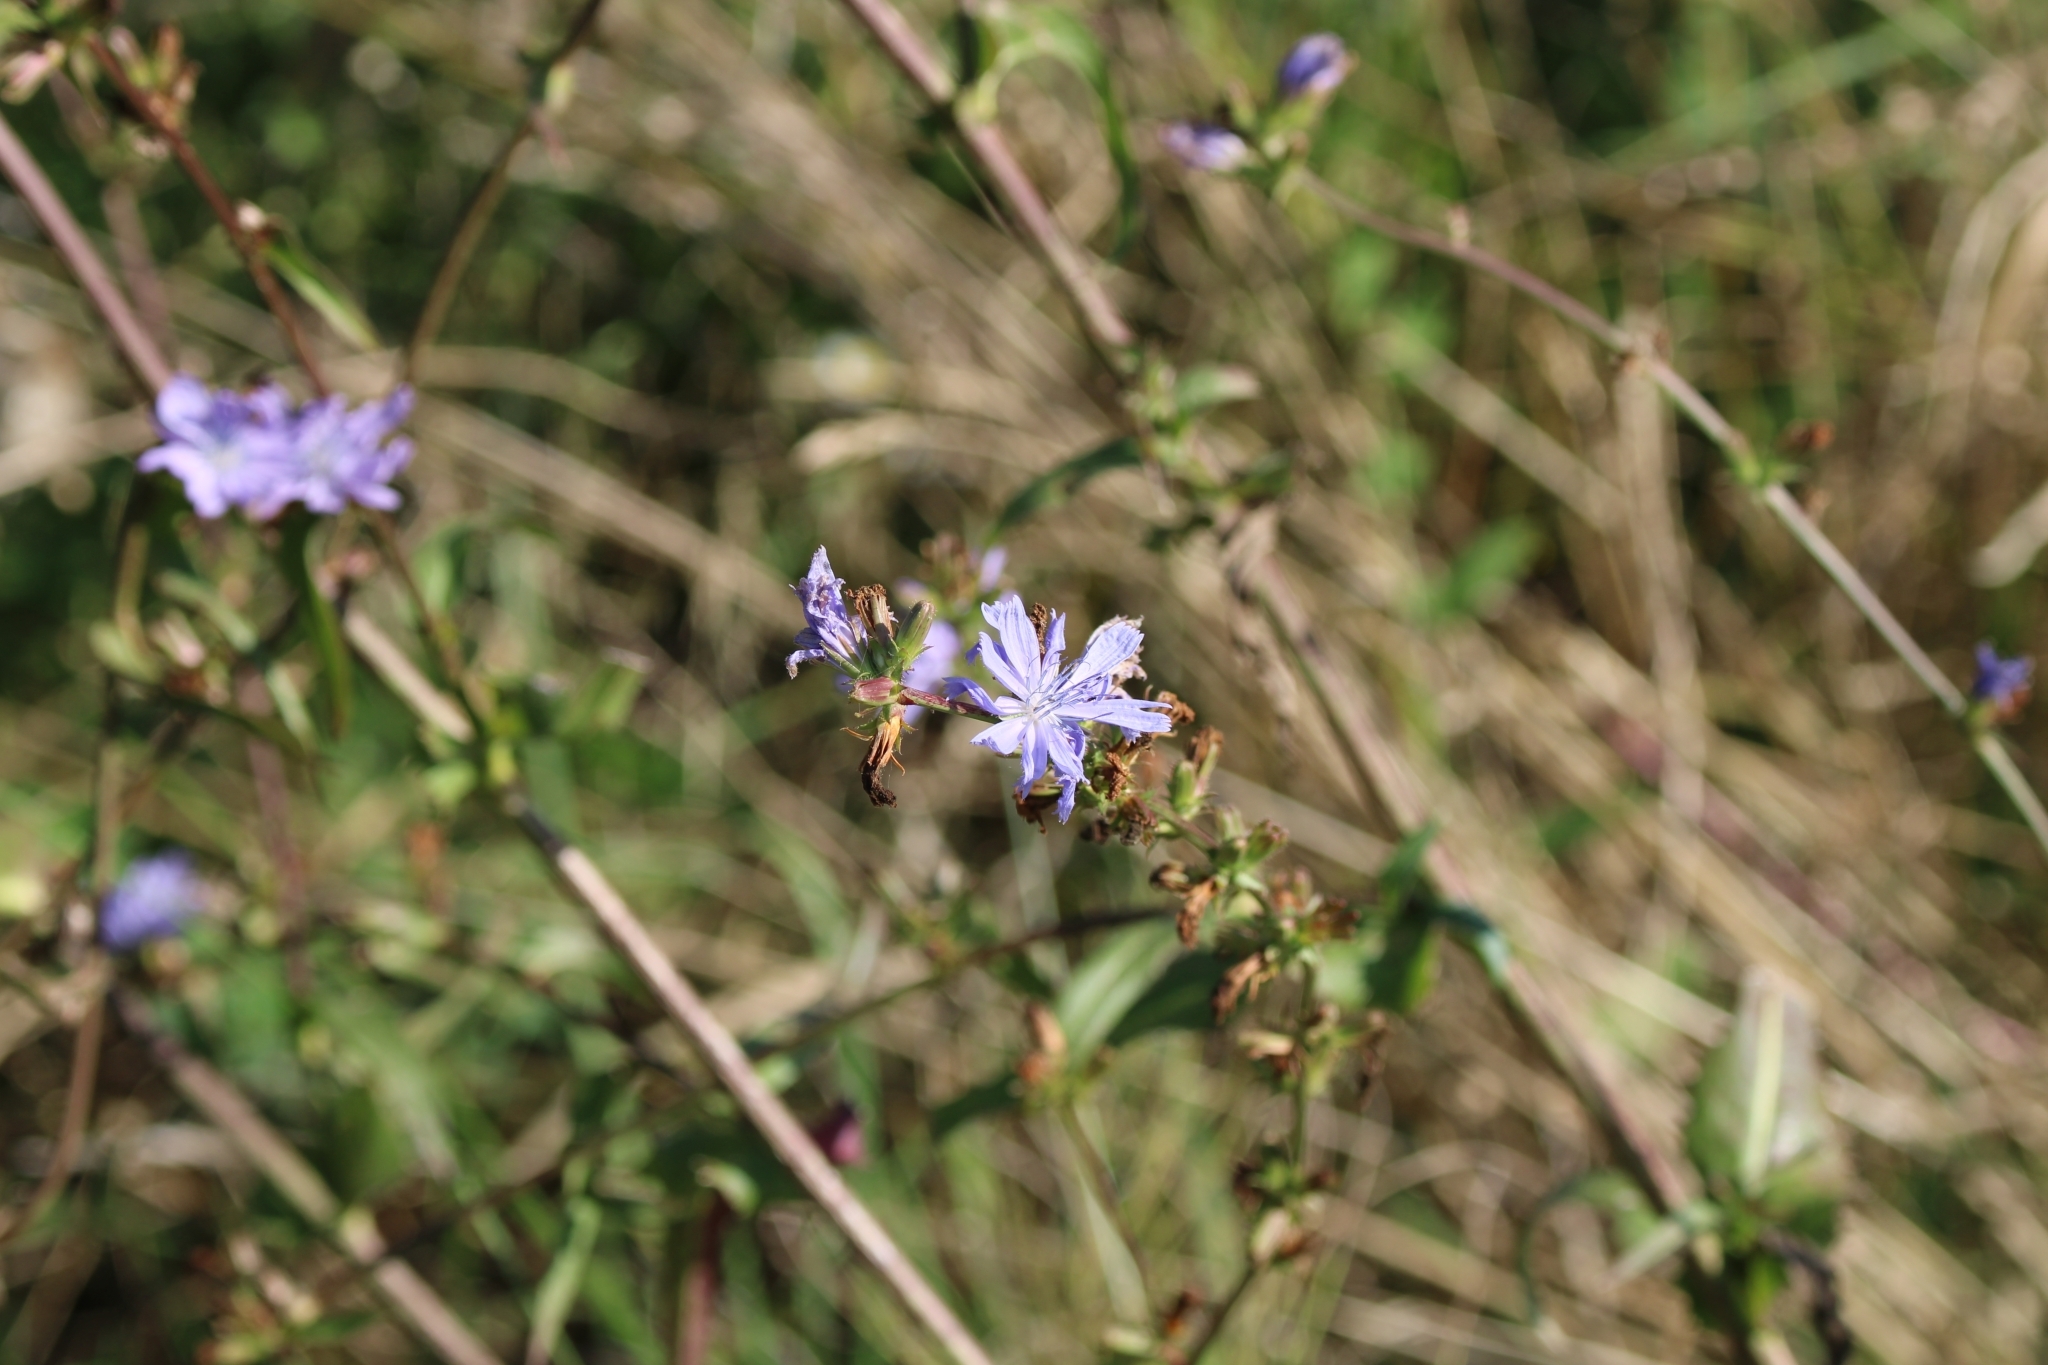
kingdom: Plantae
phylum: Tracheophyta
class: Magnoliopsida
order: Asterales
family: Asteraceae
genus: Cichorium
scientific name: Cichorium intybus
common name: Chicory
